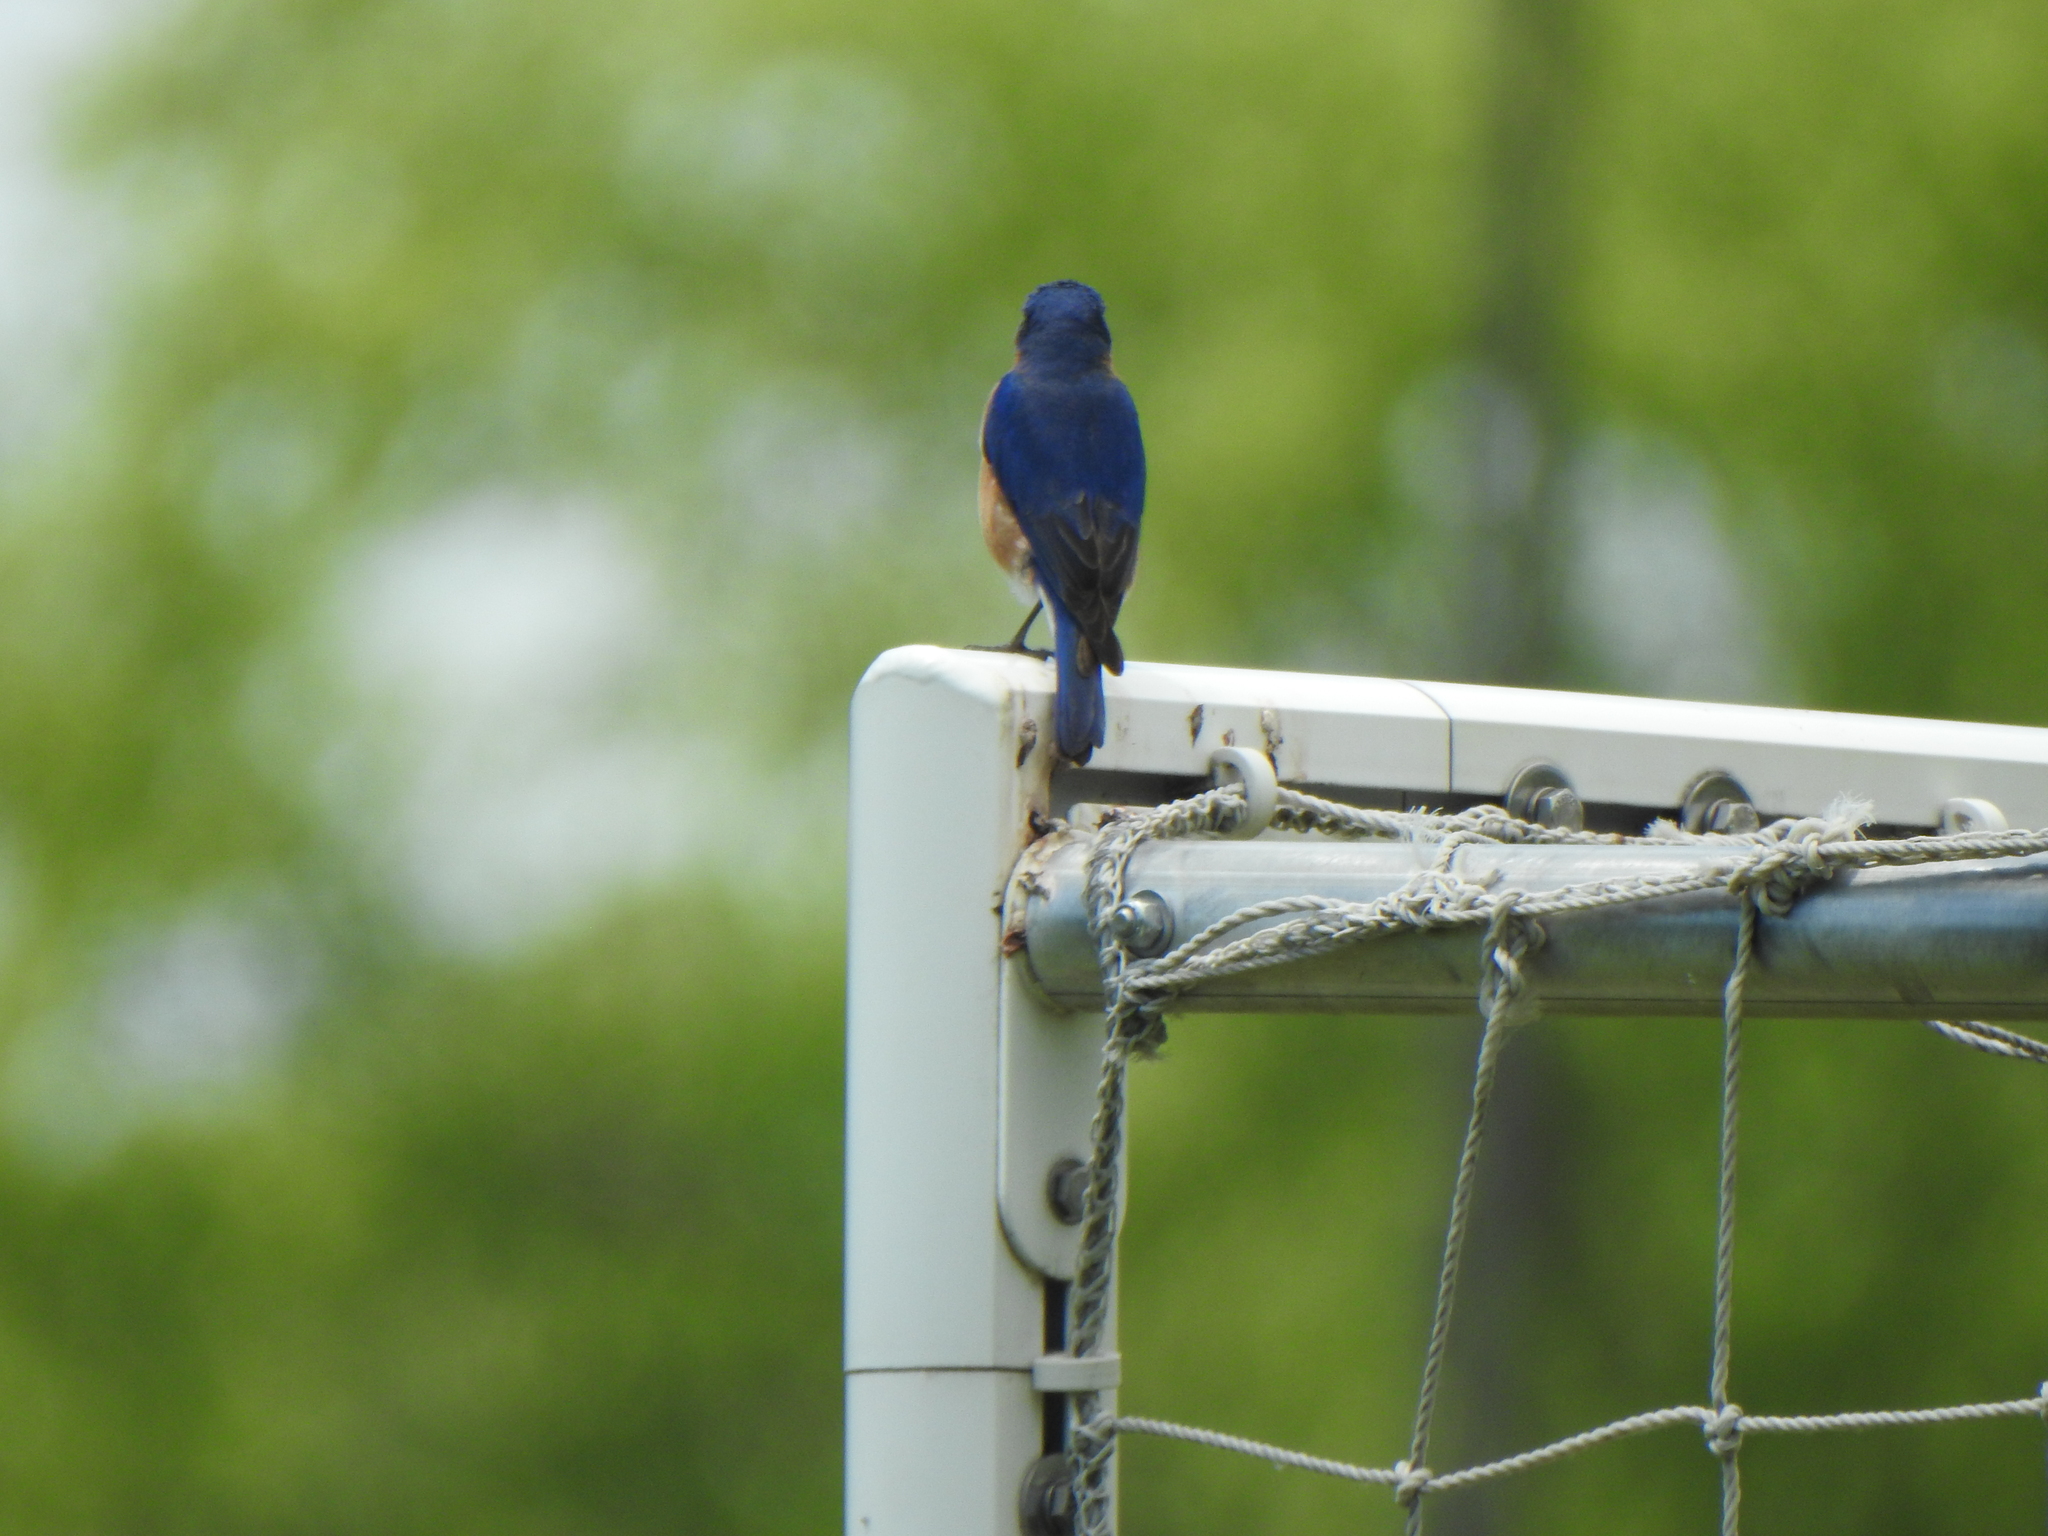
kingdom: Animalia
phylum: Chordata
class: Aves
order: Passeriformes
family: Turdidae
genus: Sialia
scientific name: Sialia sialis
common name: Eastern bluebird
